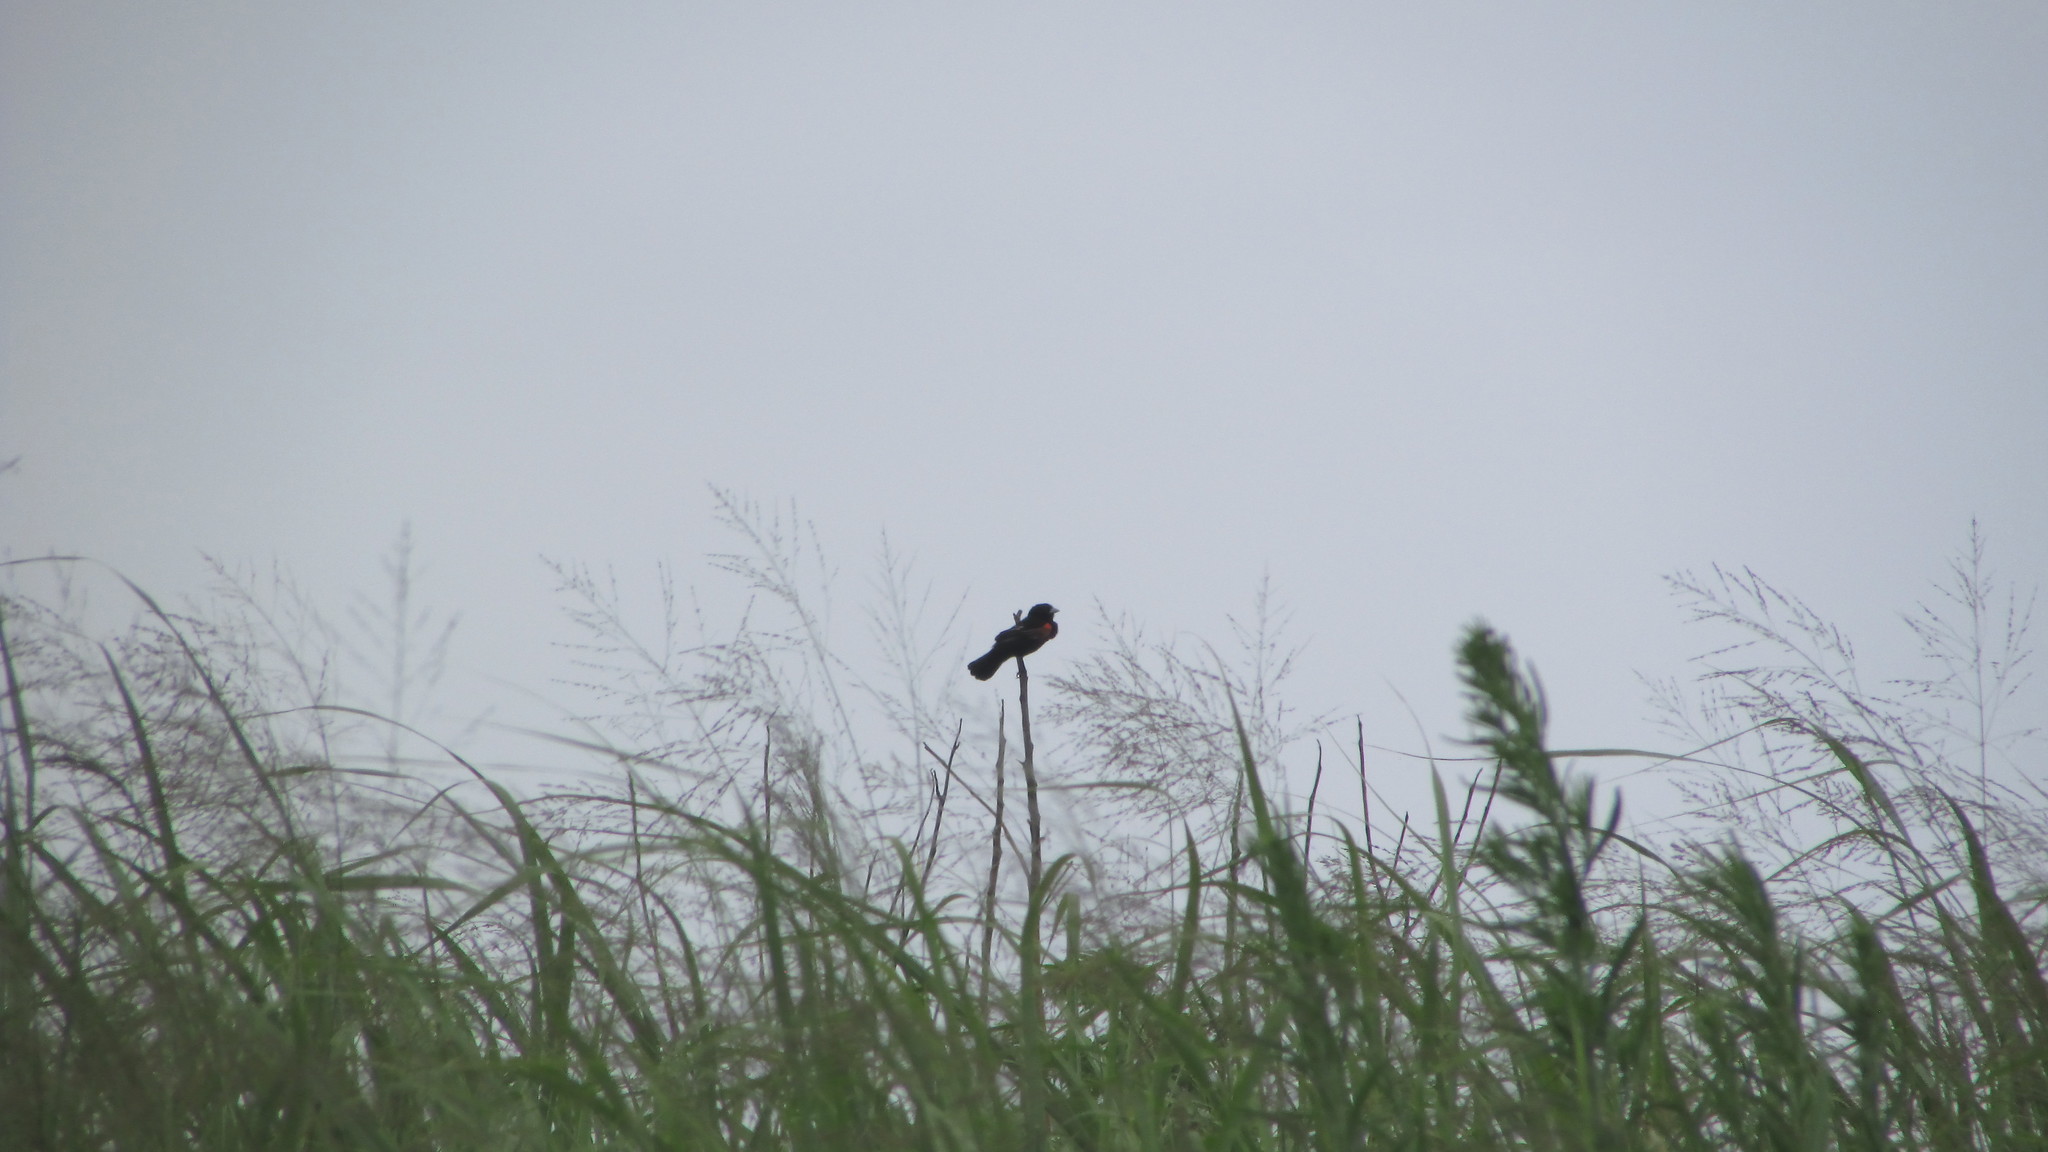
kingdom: Animalia
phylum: Chordata
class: Aves
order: Passeriformes
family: Ploceidae
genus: Euplectes
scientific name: Euplectes axillaris
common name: Fan-tailed widowbird
